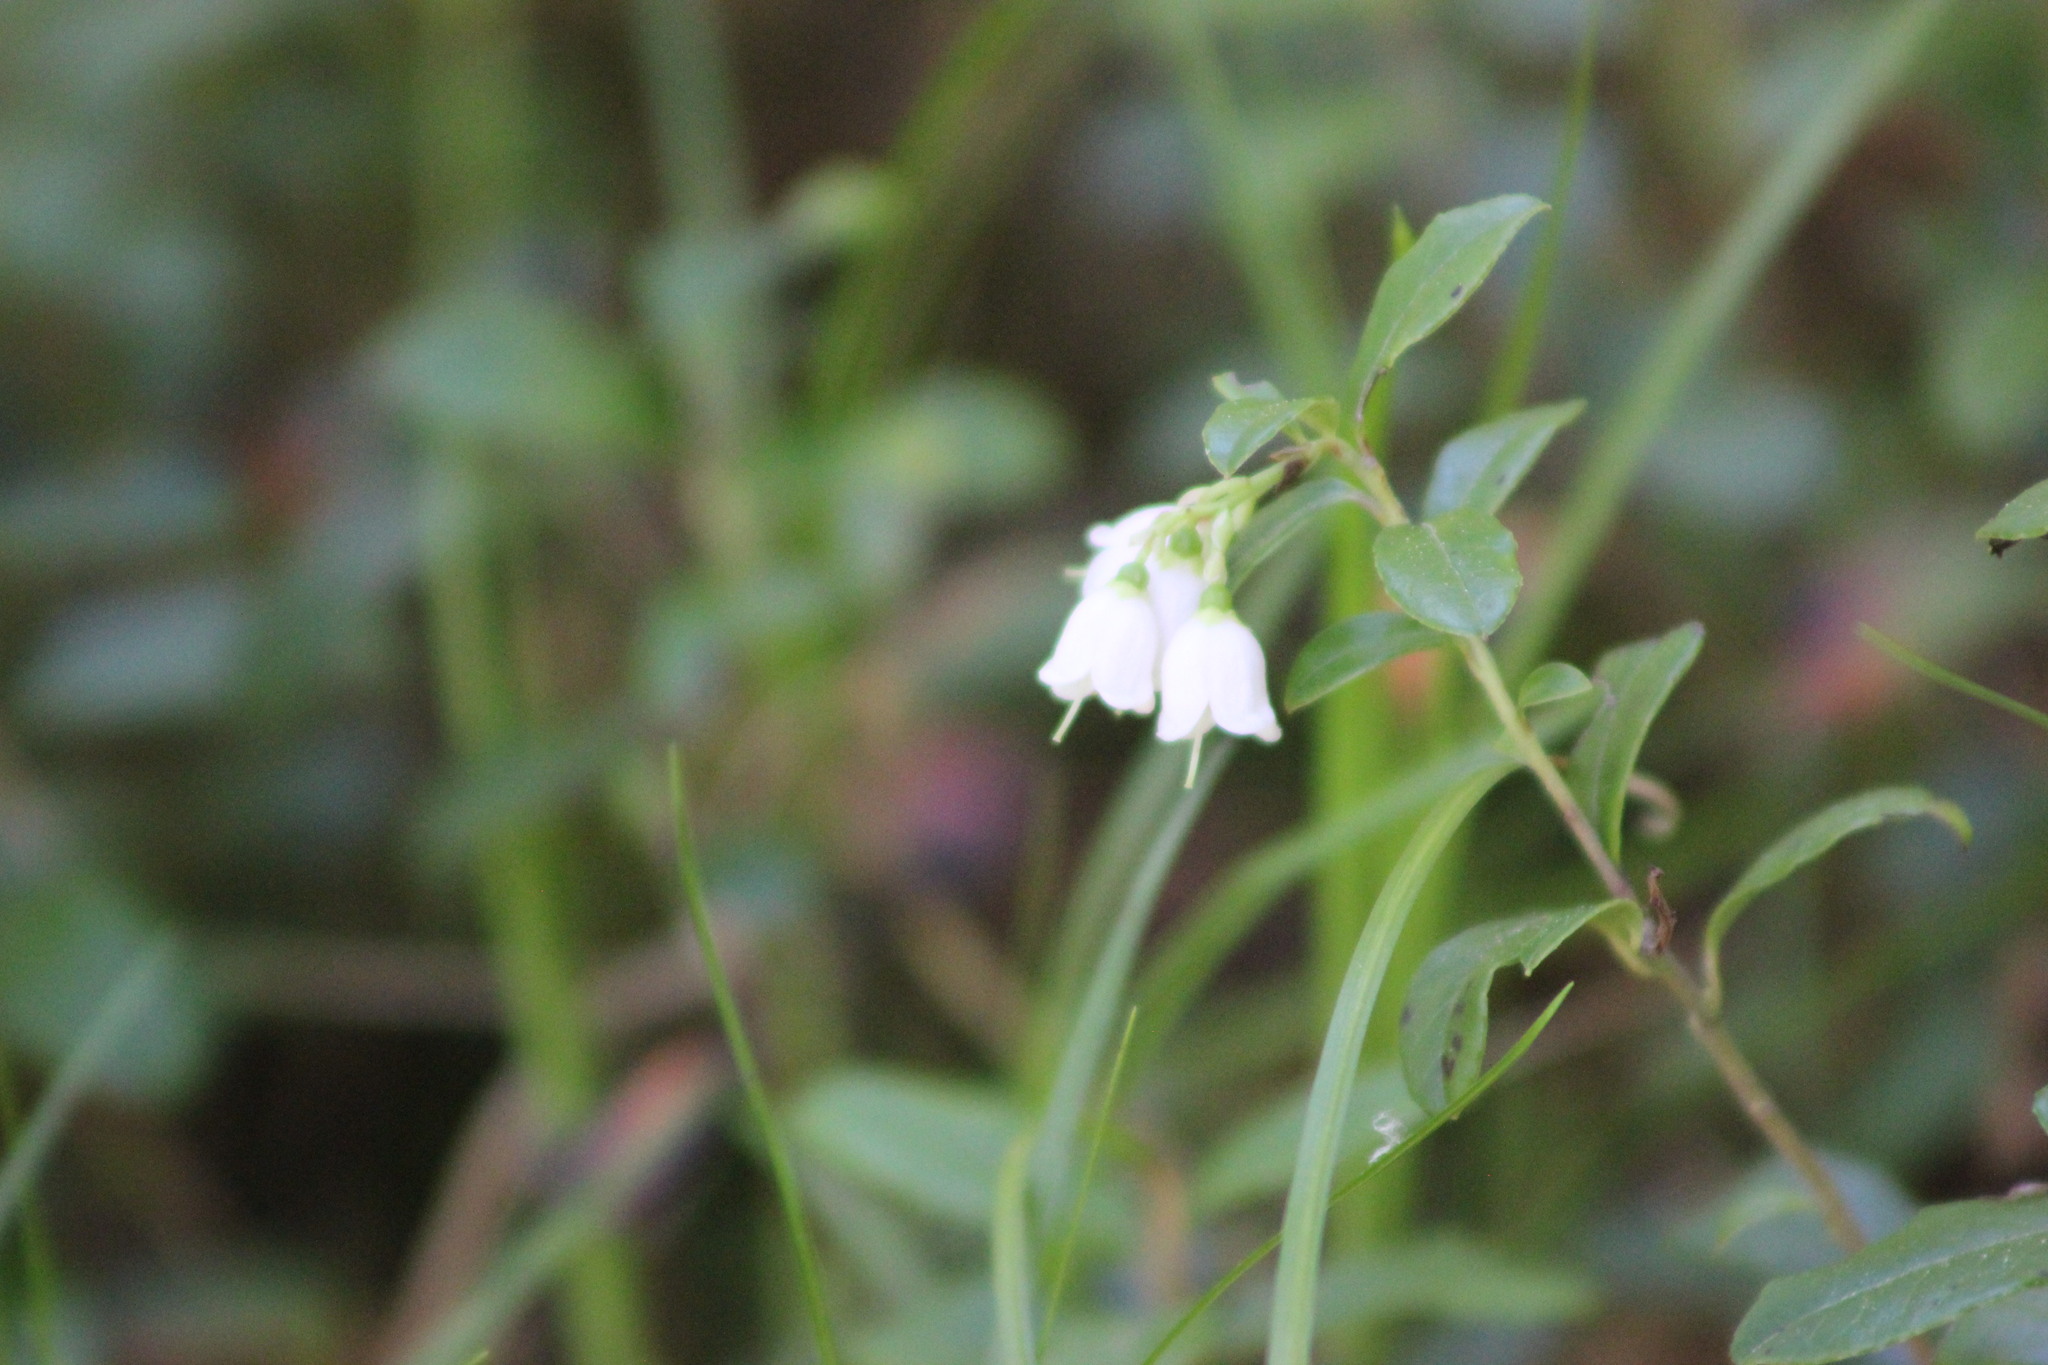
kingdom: Plantae
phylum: Tracheophyta
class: Magnoliopsida
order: Ericales
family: Ericaceae
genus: Vaccinium
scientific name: Vaccinium vitis-idaea
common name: Cowberry
